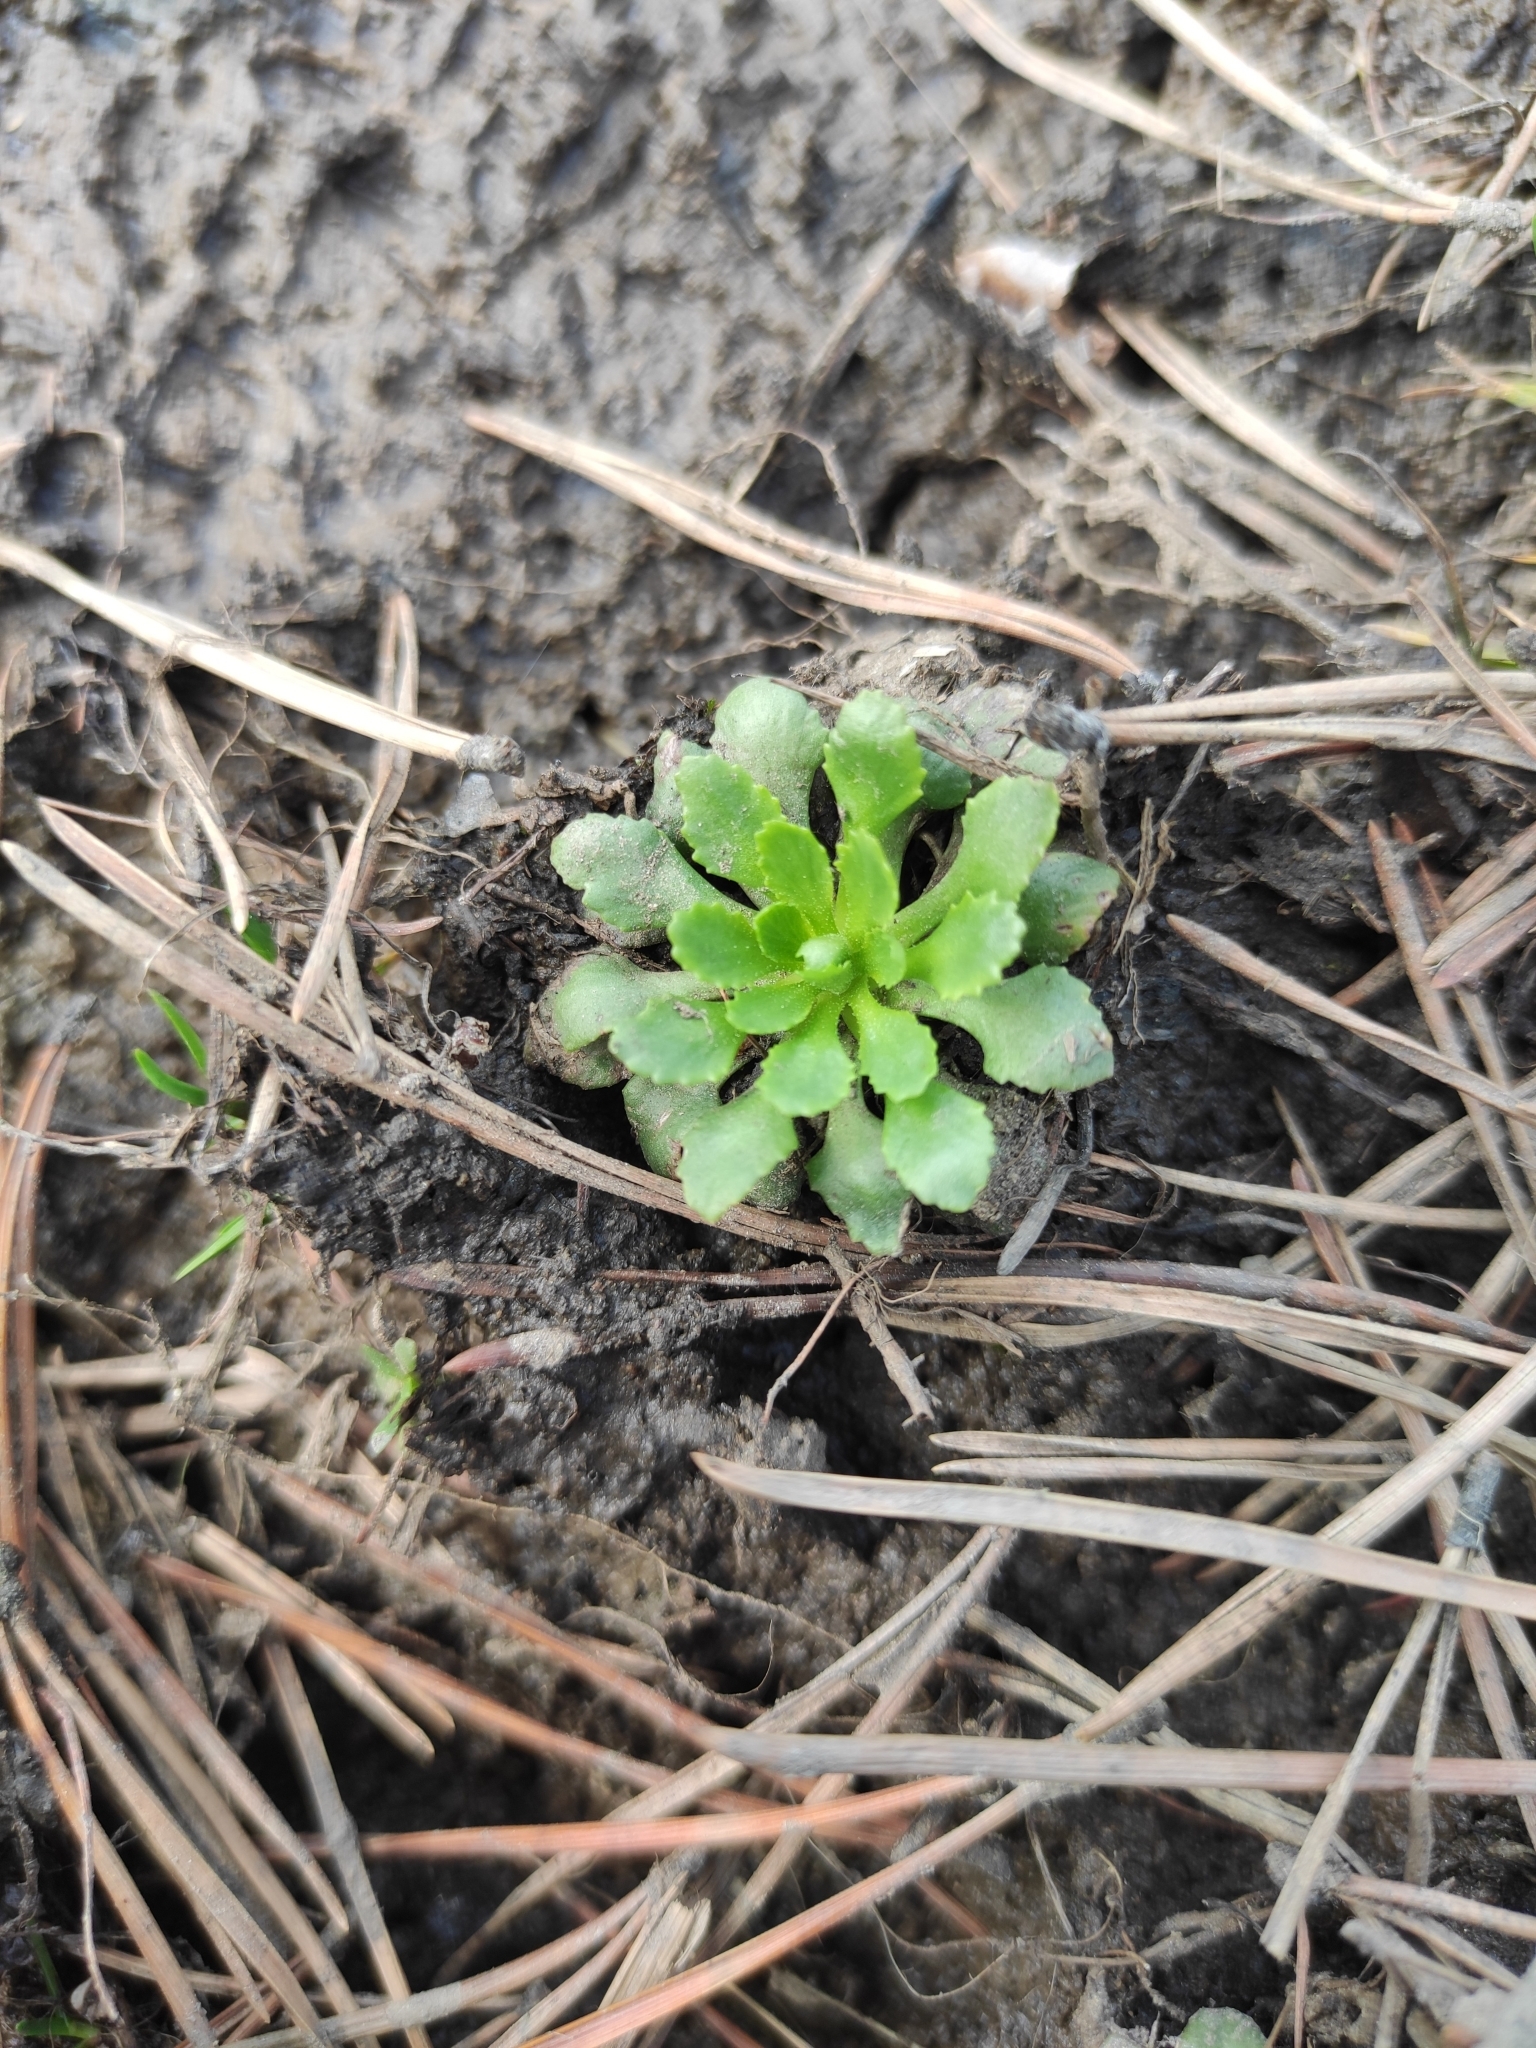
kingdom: Plantae
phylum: Tracheophyta
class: Magnoliopsida
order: Ericales
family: Primulaceae
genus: Androsace
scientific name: Androsace filiformis
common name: Filiform rock jasmine
